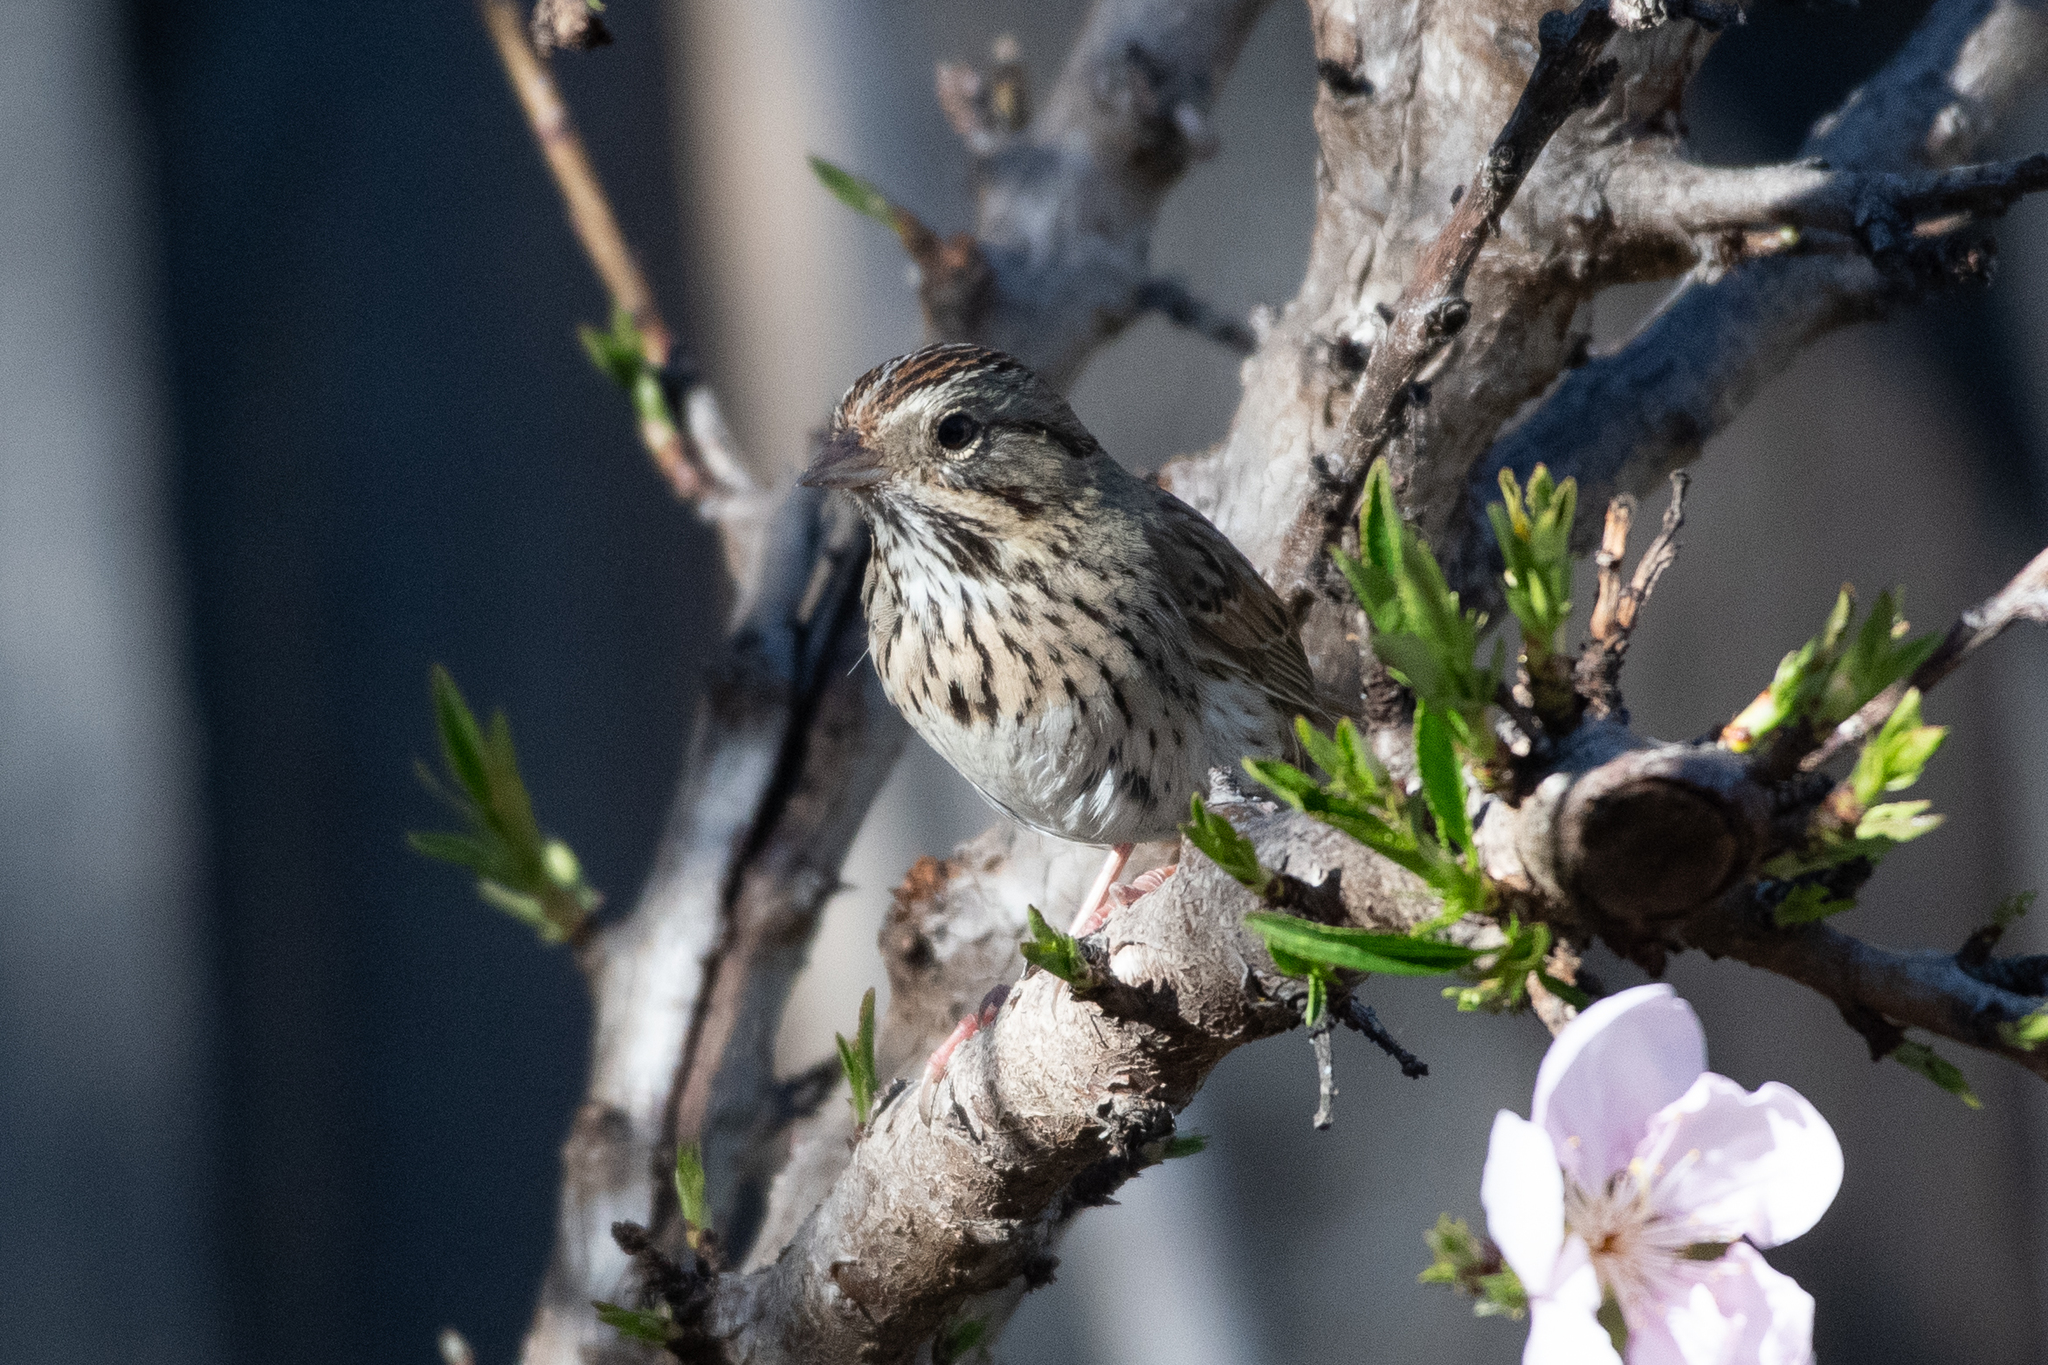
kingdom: Animalia
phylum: Chordata
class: Aves
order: Passeriformes
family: Passerellidae
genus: Melospiza
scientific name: Melospiza lincolnii
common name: Lincoln's sparrow
